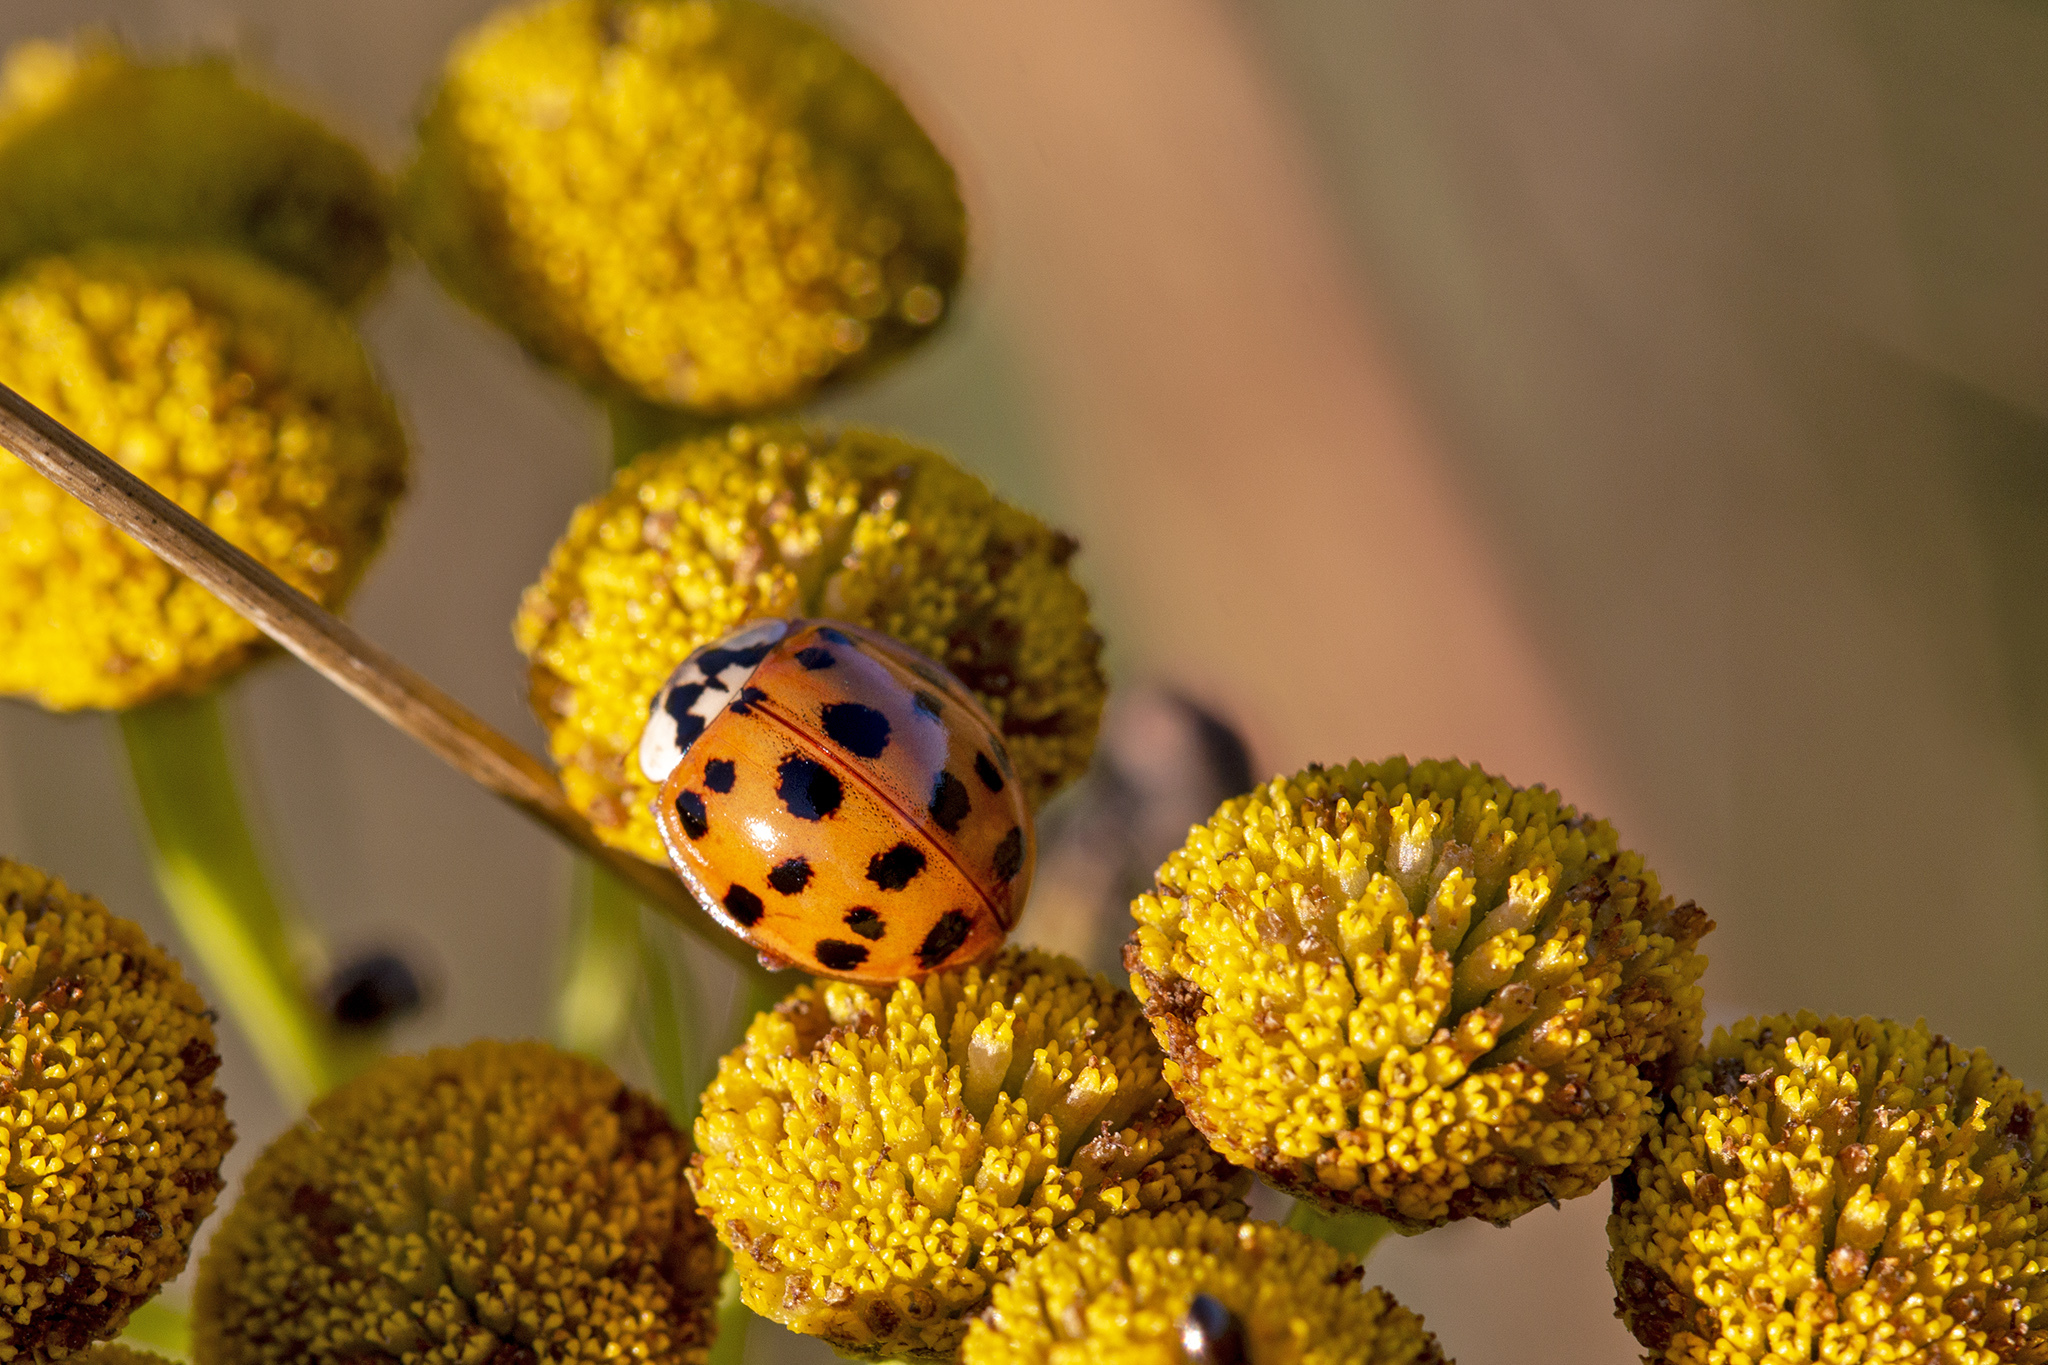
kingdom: Animalia
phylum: Arthropoda
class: Insecta
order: Coleoptera
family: Coccinellidae
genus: Harmonia
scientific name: Harmonia axyridis
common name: Harlequin ladybird
